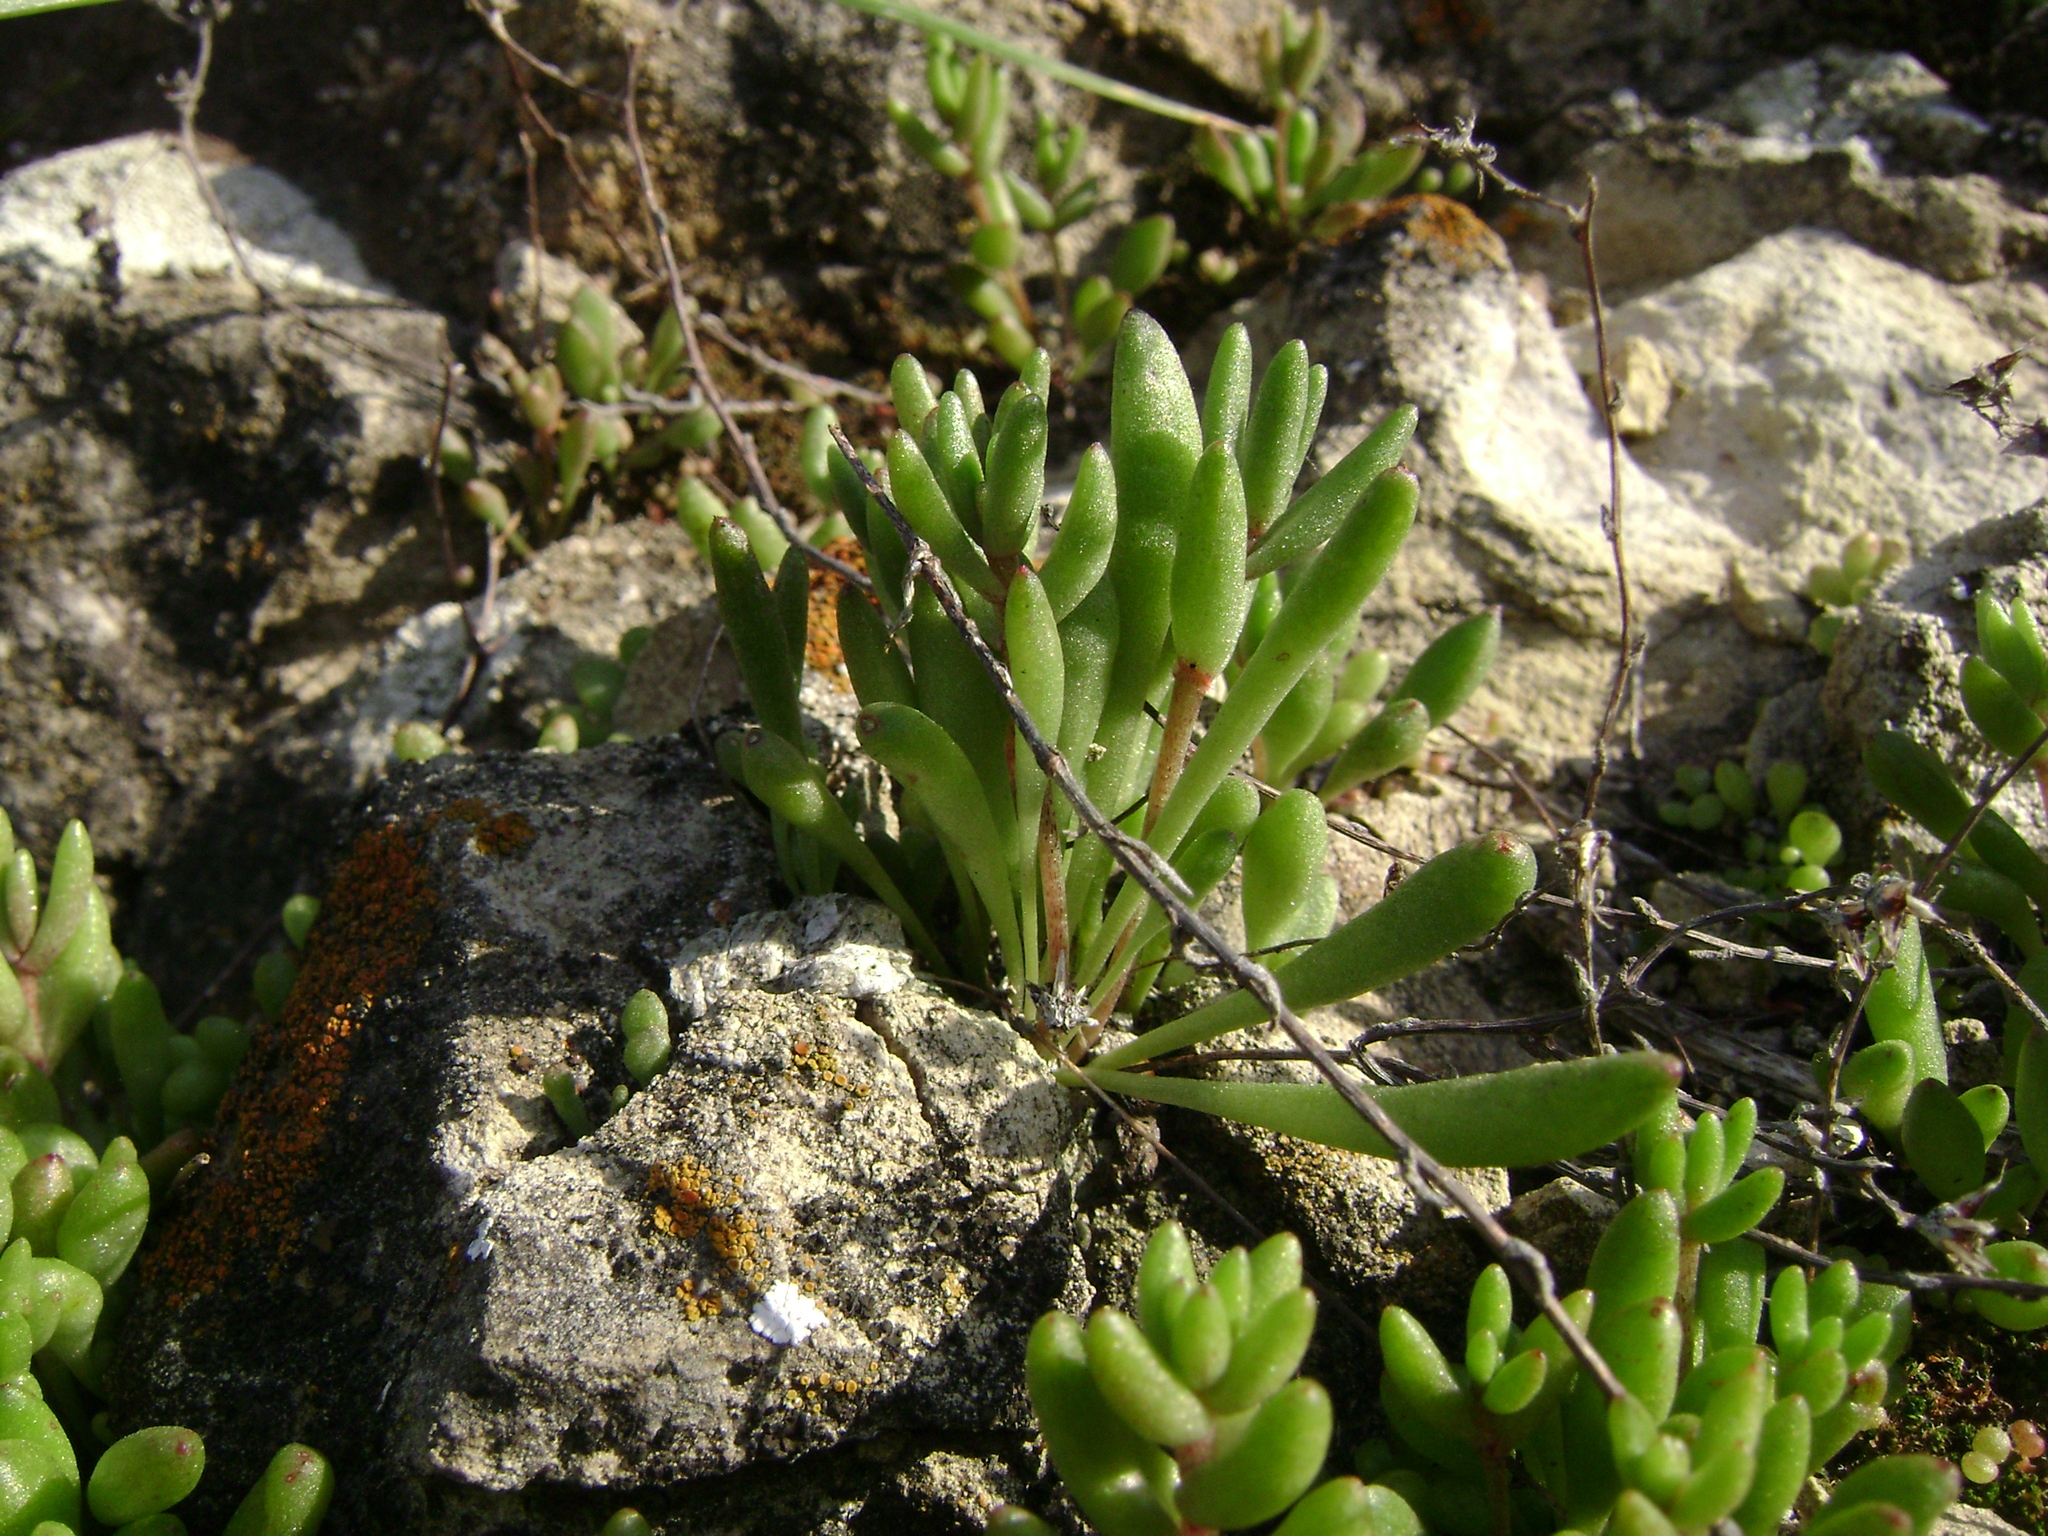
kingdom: Plantae
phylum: Tracheophyta
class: Magnoliopsida
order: Saxifragales
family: Crassulaceae
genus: Dudleya
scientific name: Dudleya blochmaniae
